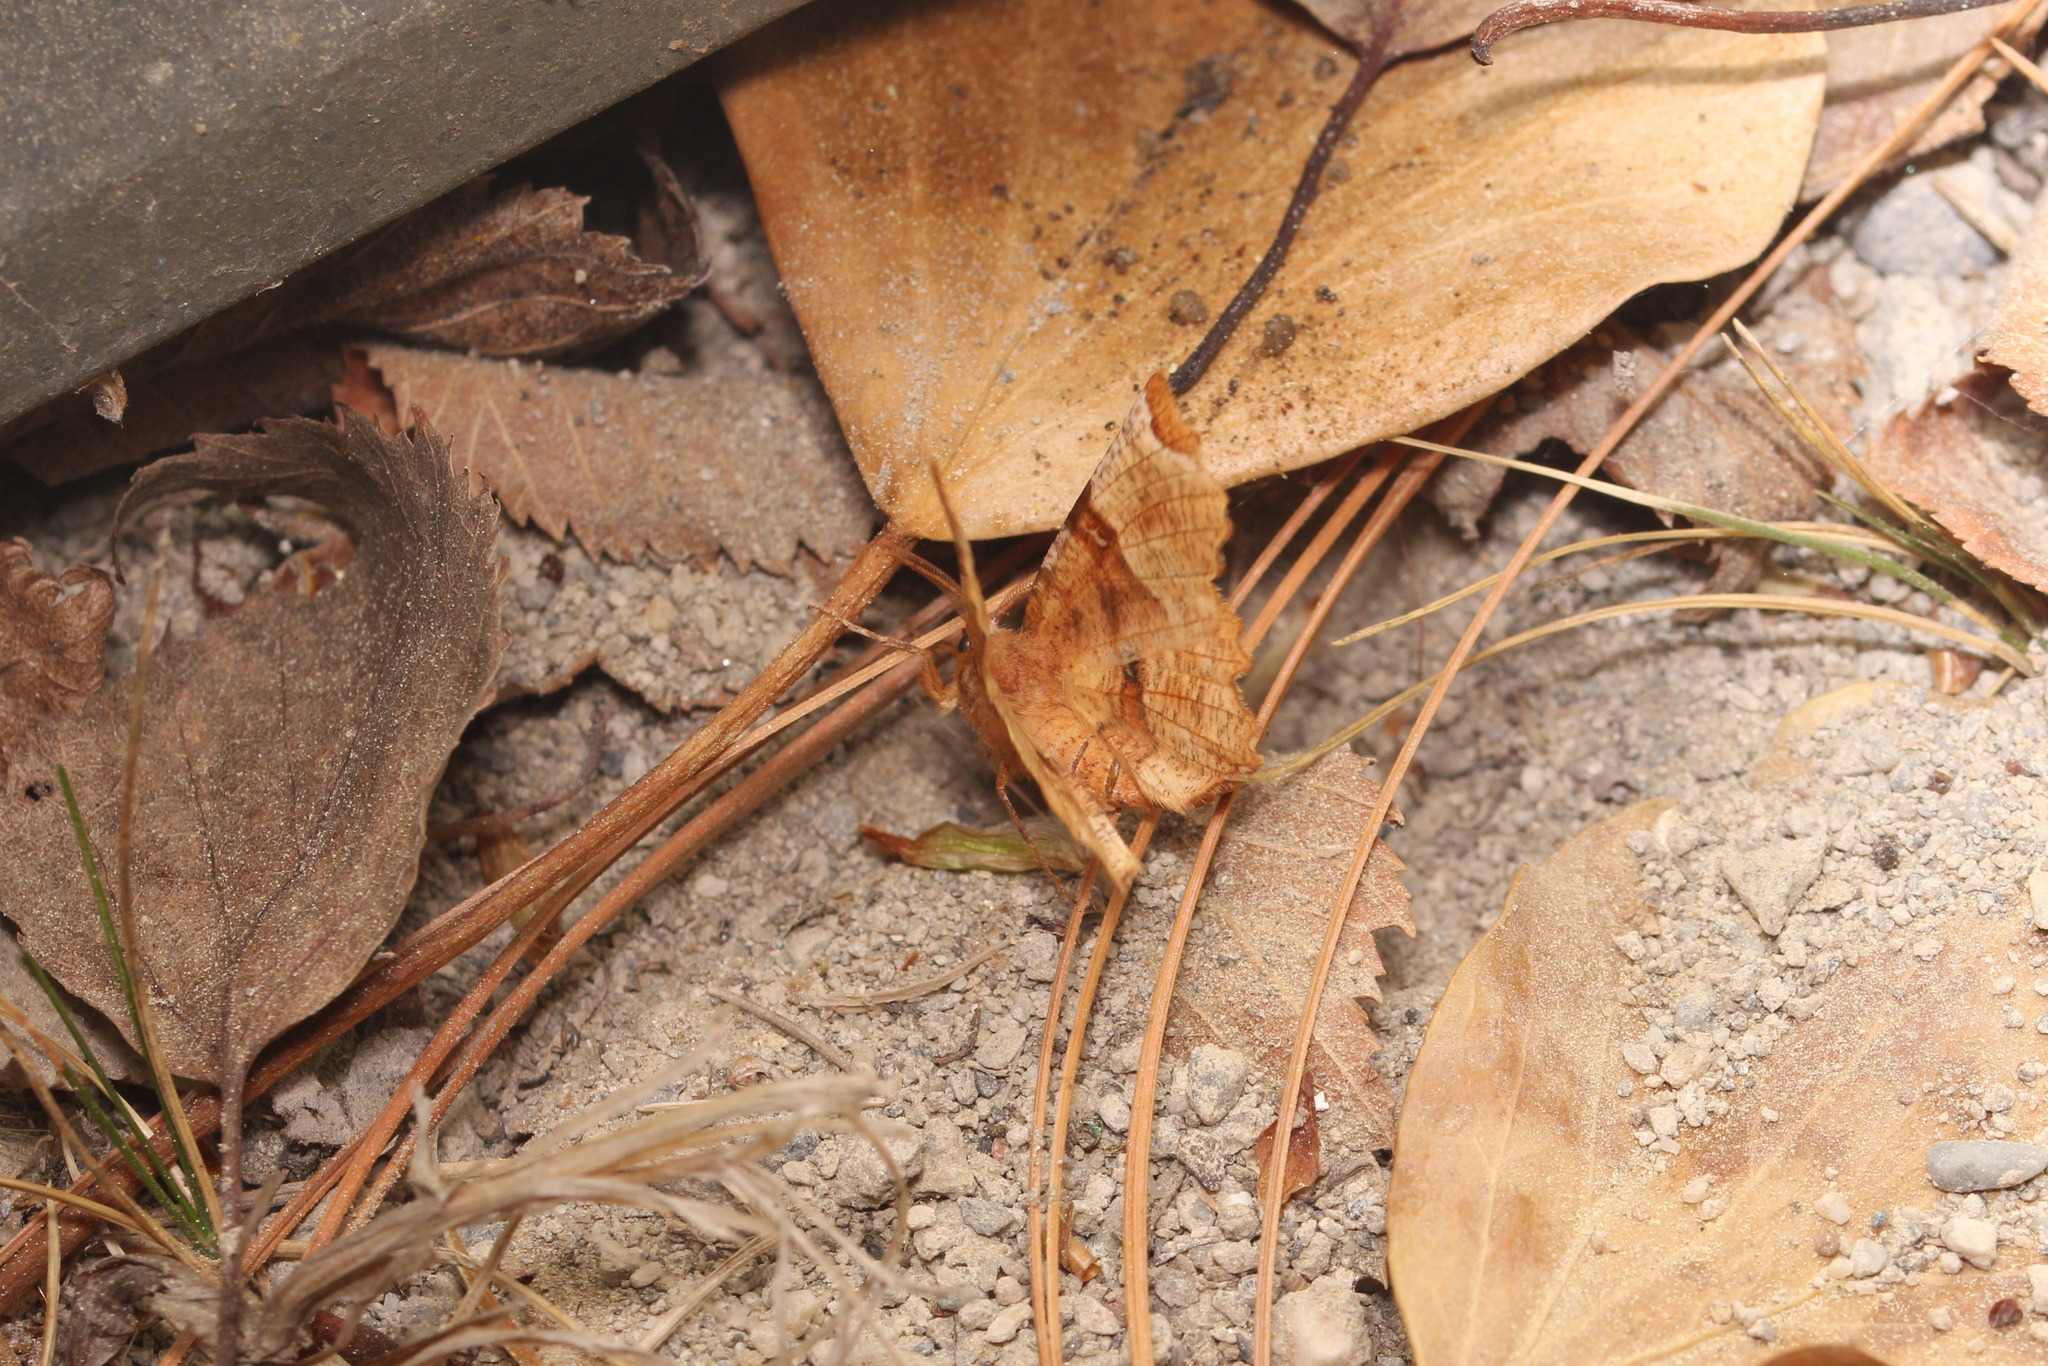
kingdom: Animalia
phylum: Arthropoda
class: Insecta
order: Lepidoptera
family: Geometridae
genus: Selenia
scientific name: Selenia lunularia
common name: Lunar thorn
